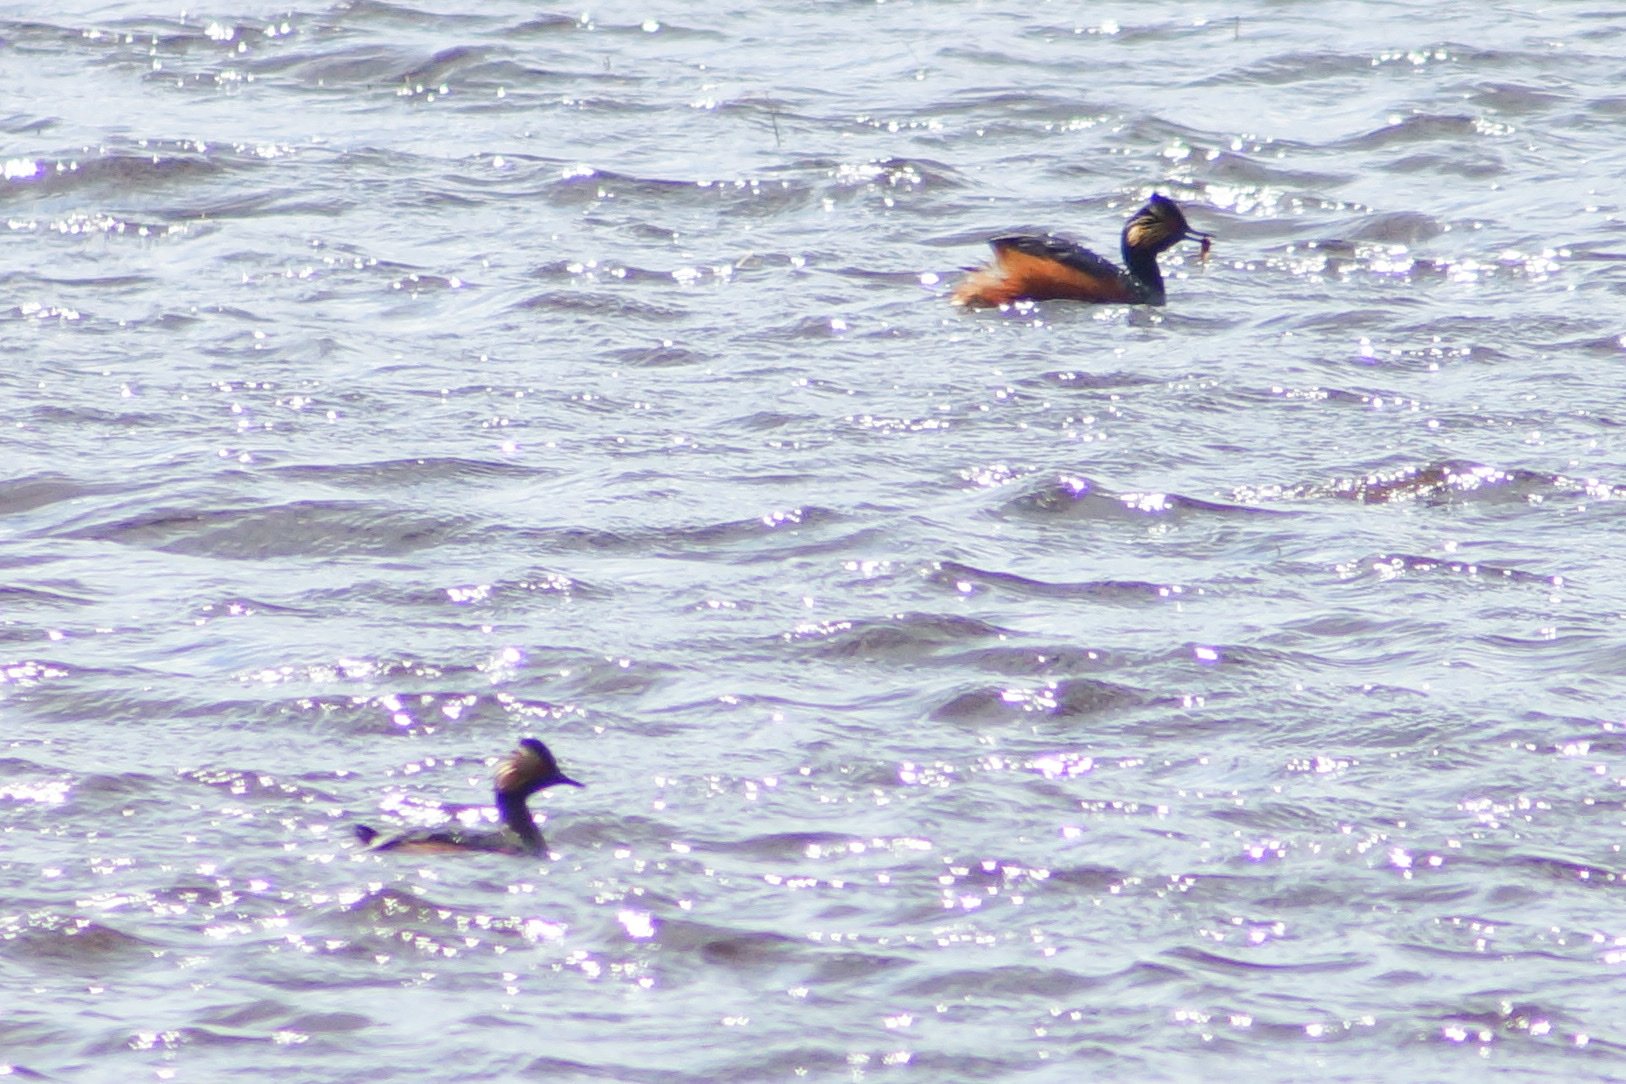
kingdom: Animalia
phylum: Chordata
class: Aves
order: Podicipediformes
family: Podicipedidae
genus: Podiceps
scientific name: Podiceps nigricollis
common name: Black-necked grebe
